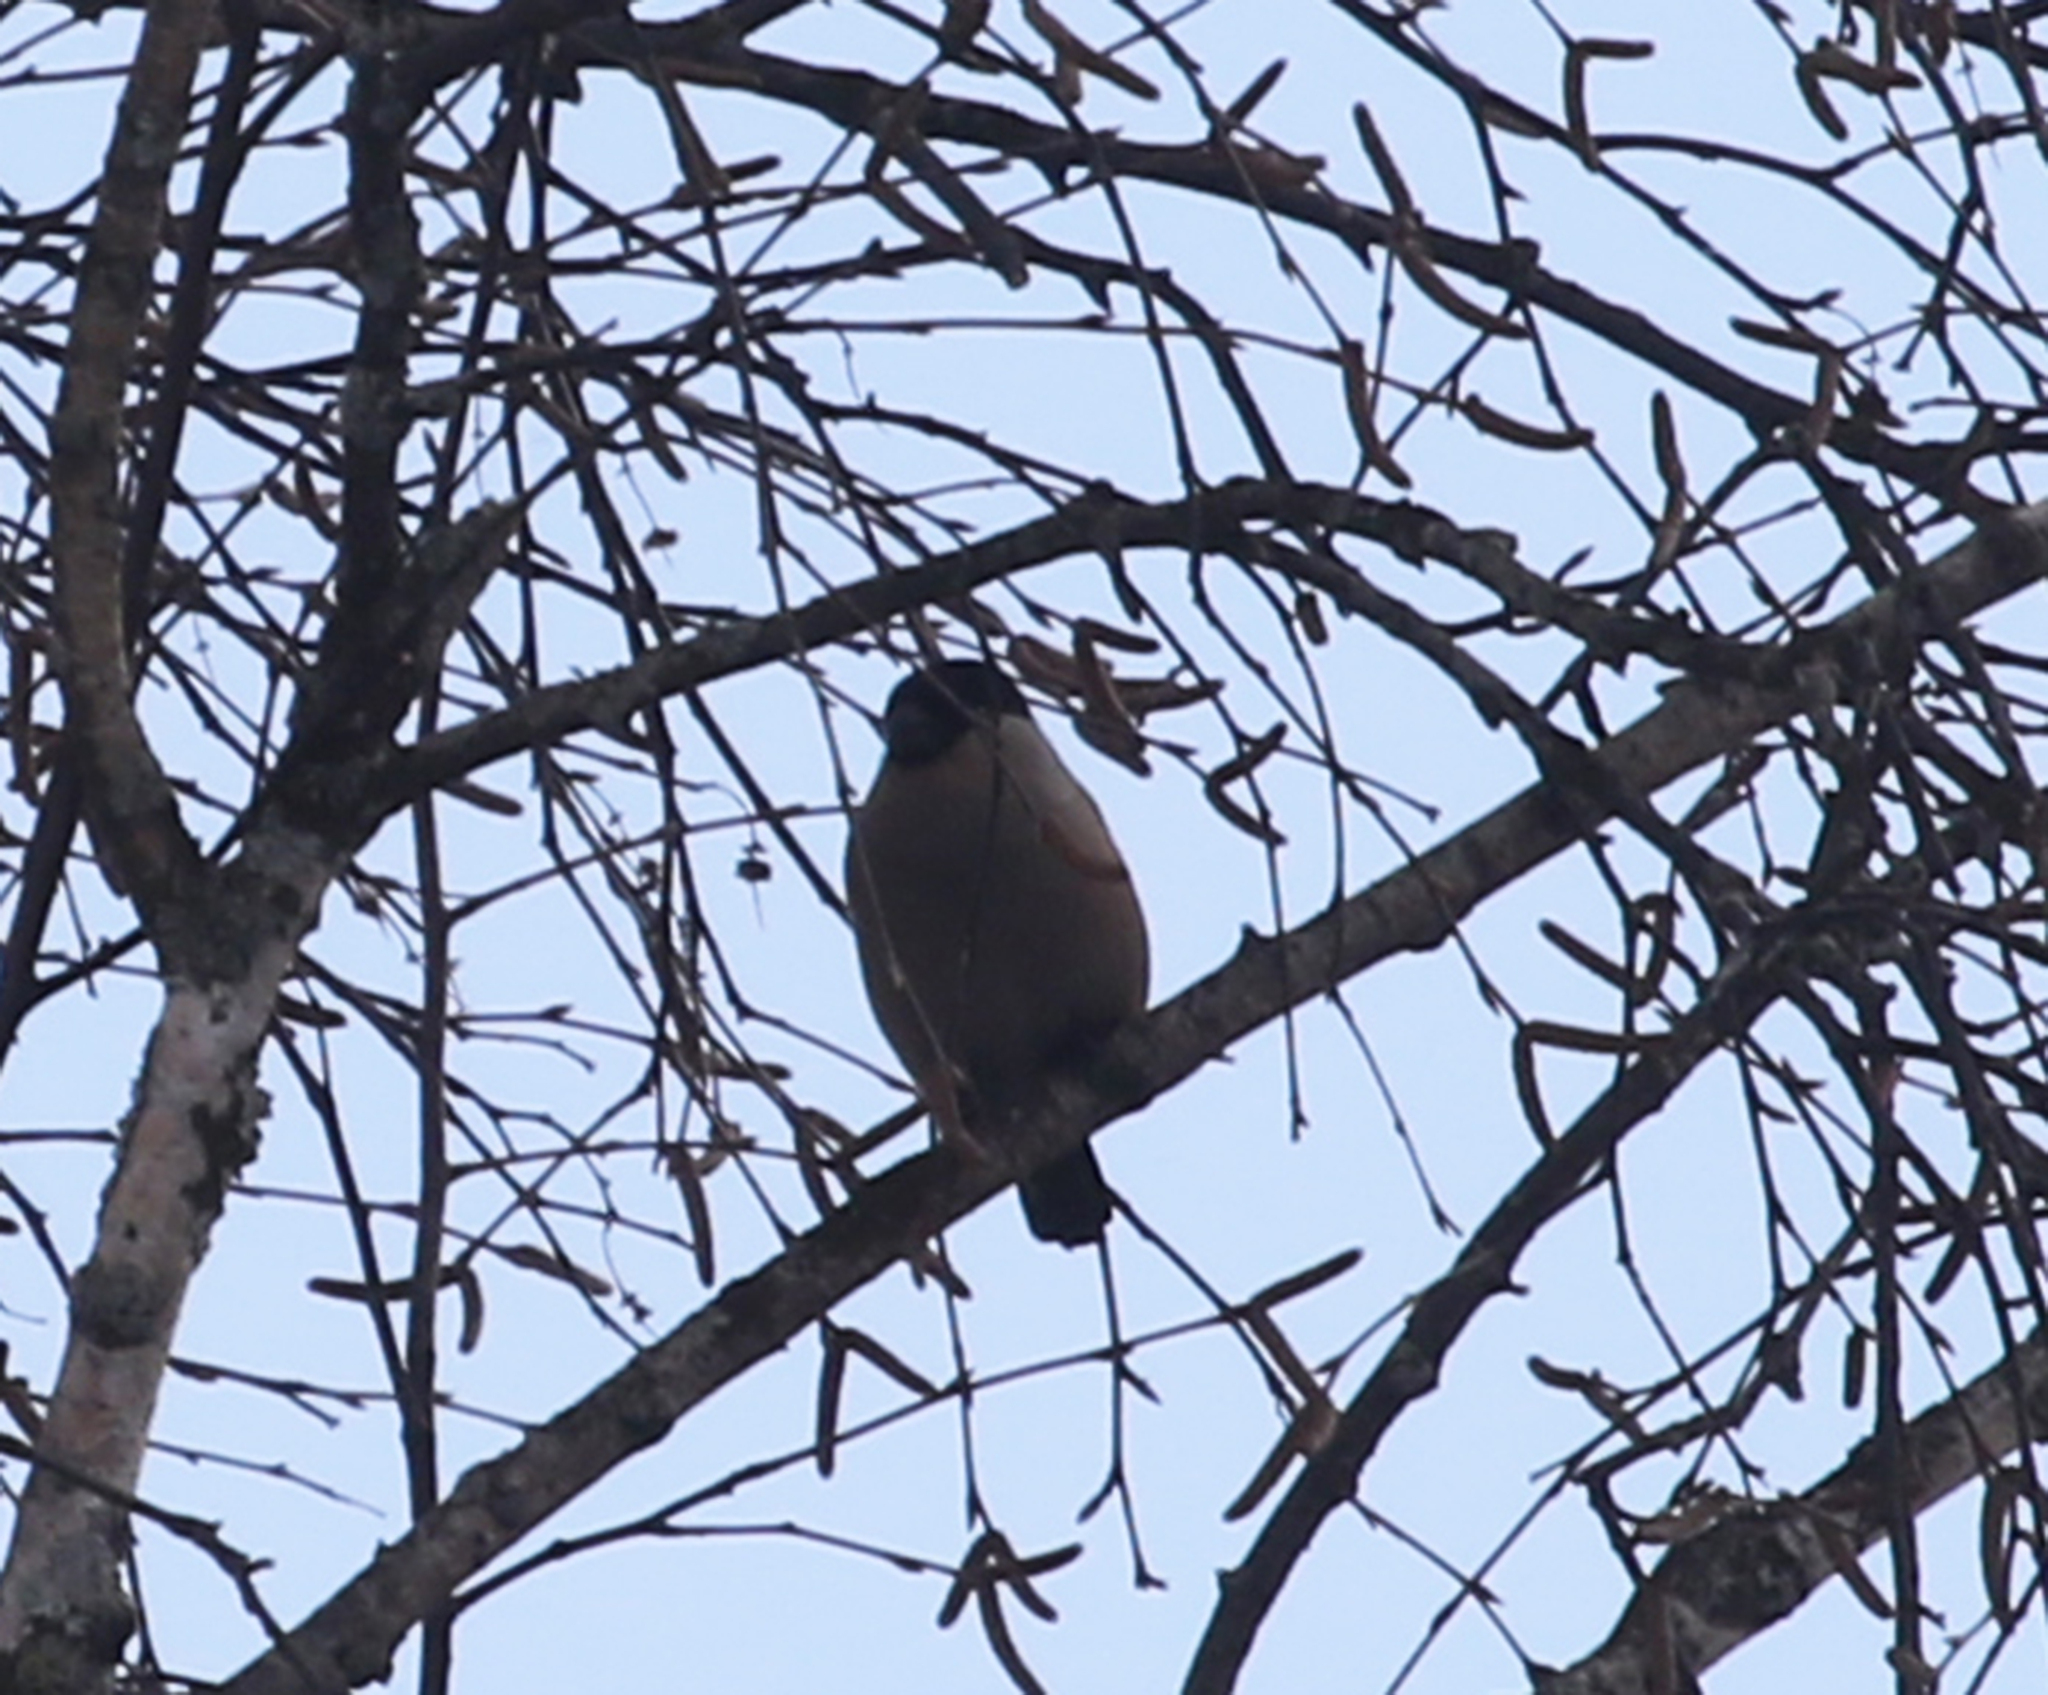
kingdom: Animalia
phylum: Chordata
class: Aves
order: Passeriformes
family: Fringillidae
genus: Pyrrhula
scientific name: Pyrrhula pyrrhula
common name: Eurasian bullfinch
